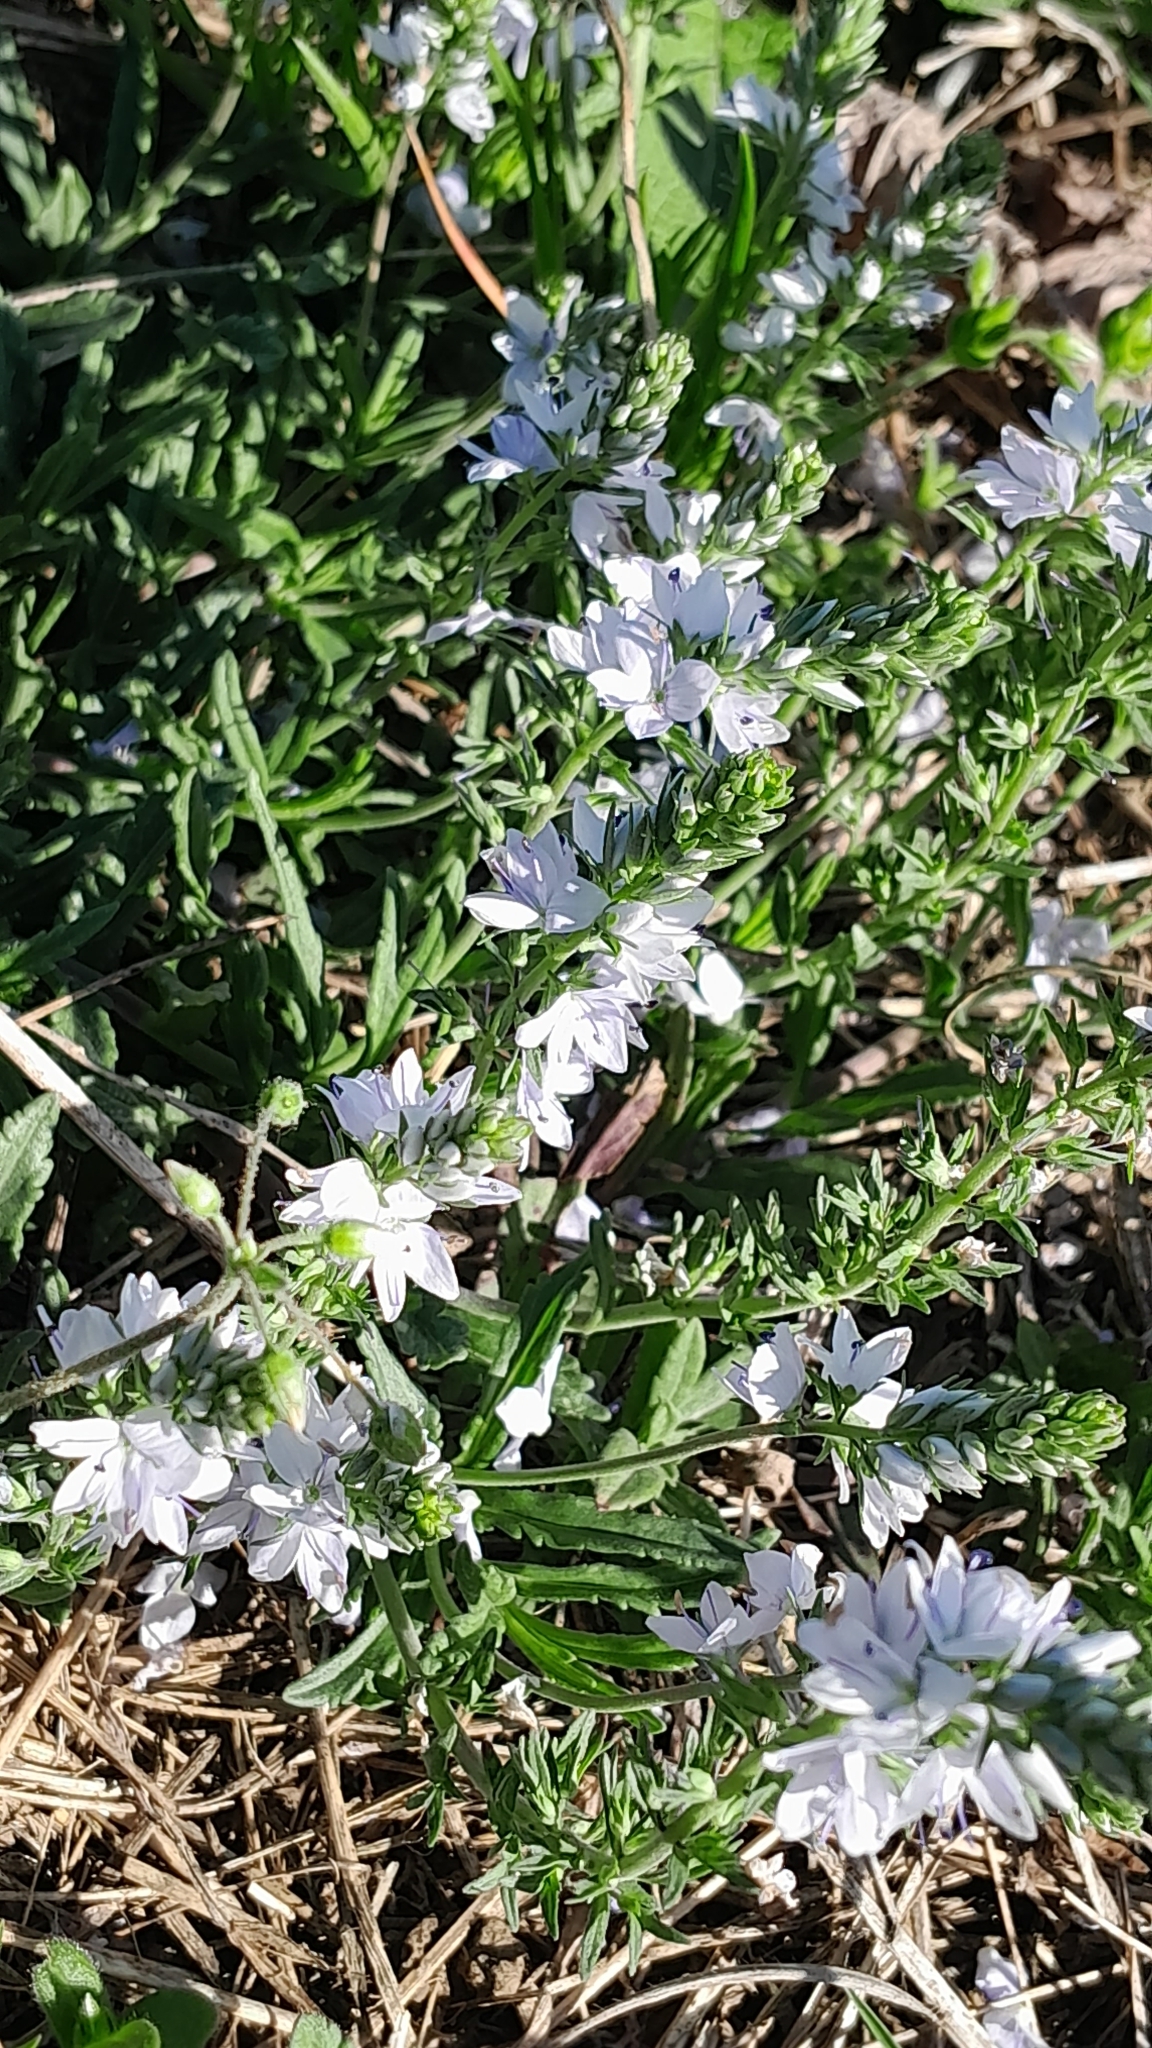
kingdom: Plantae
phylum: Tracheophyta
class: Magnoliopsida
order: Lamiales
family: Plantaginaceae
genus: Veronica
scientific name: Veronica prostrata
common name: Prostrate speedwell
